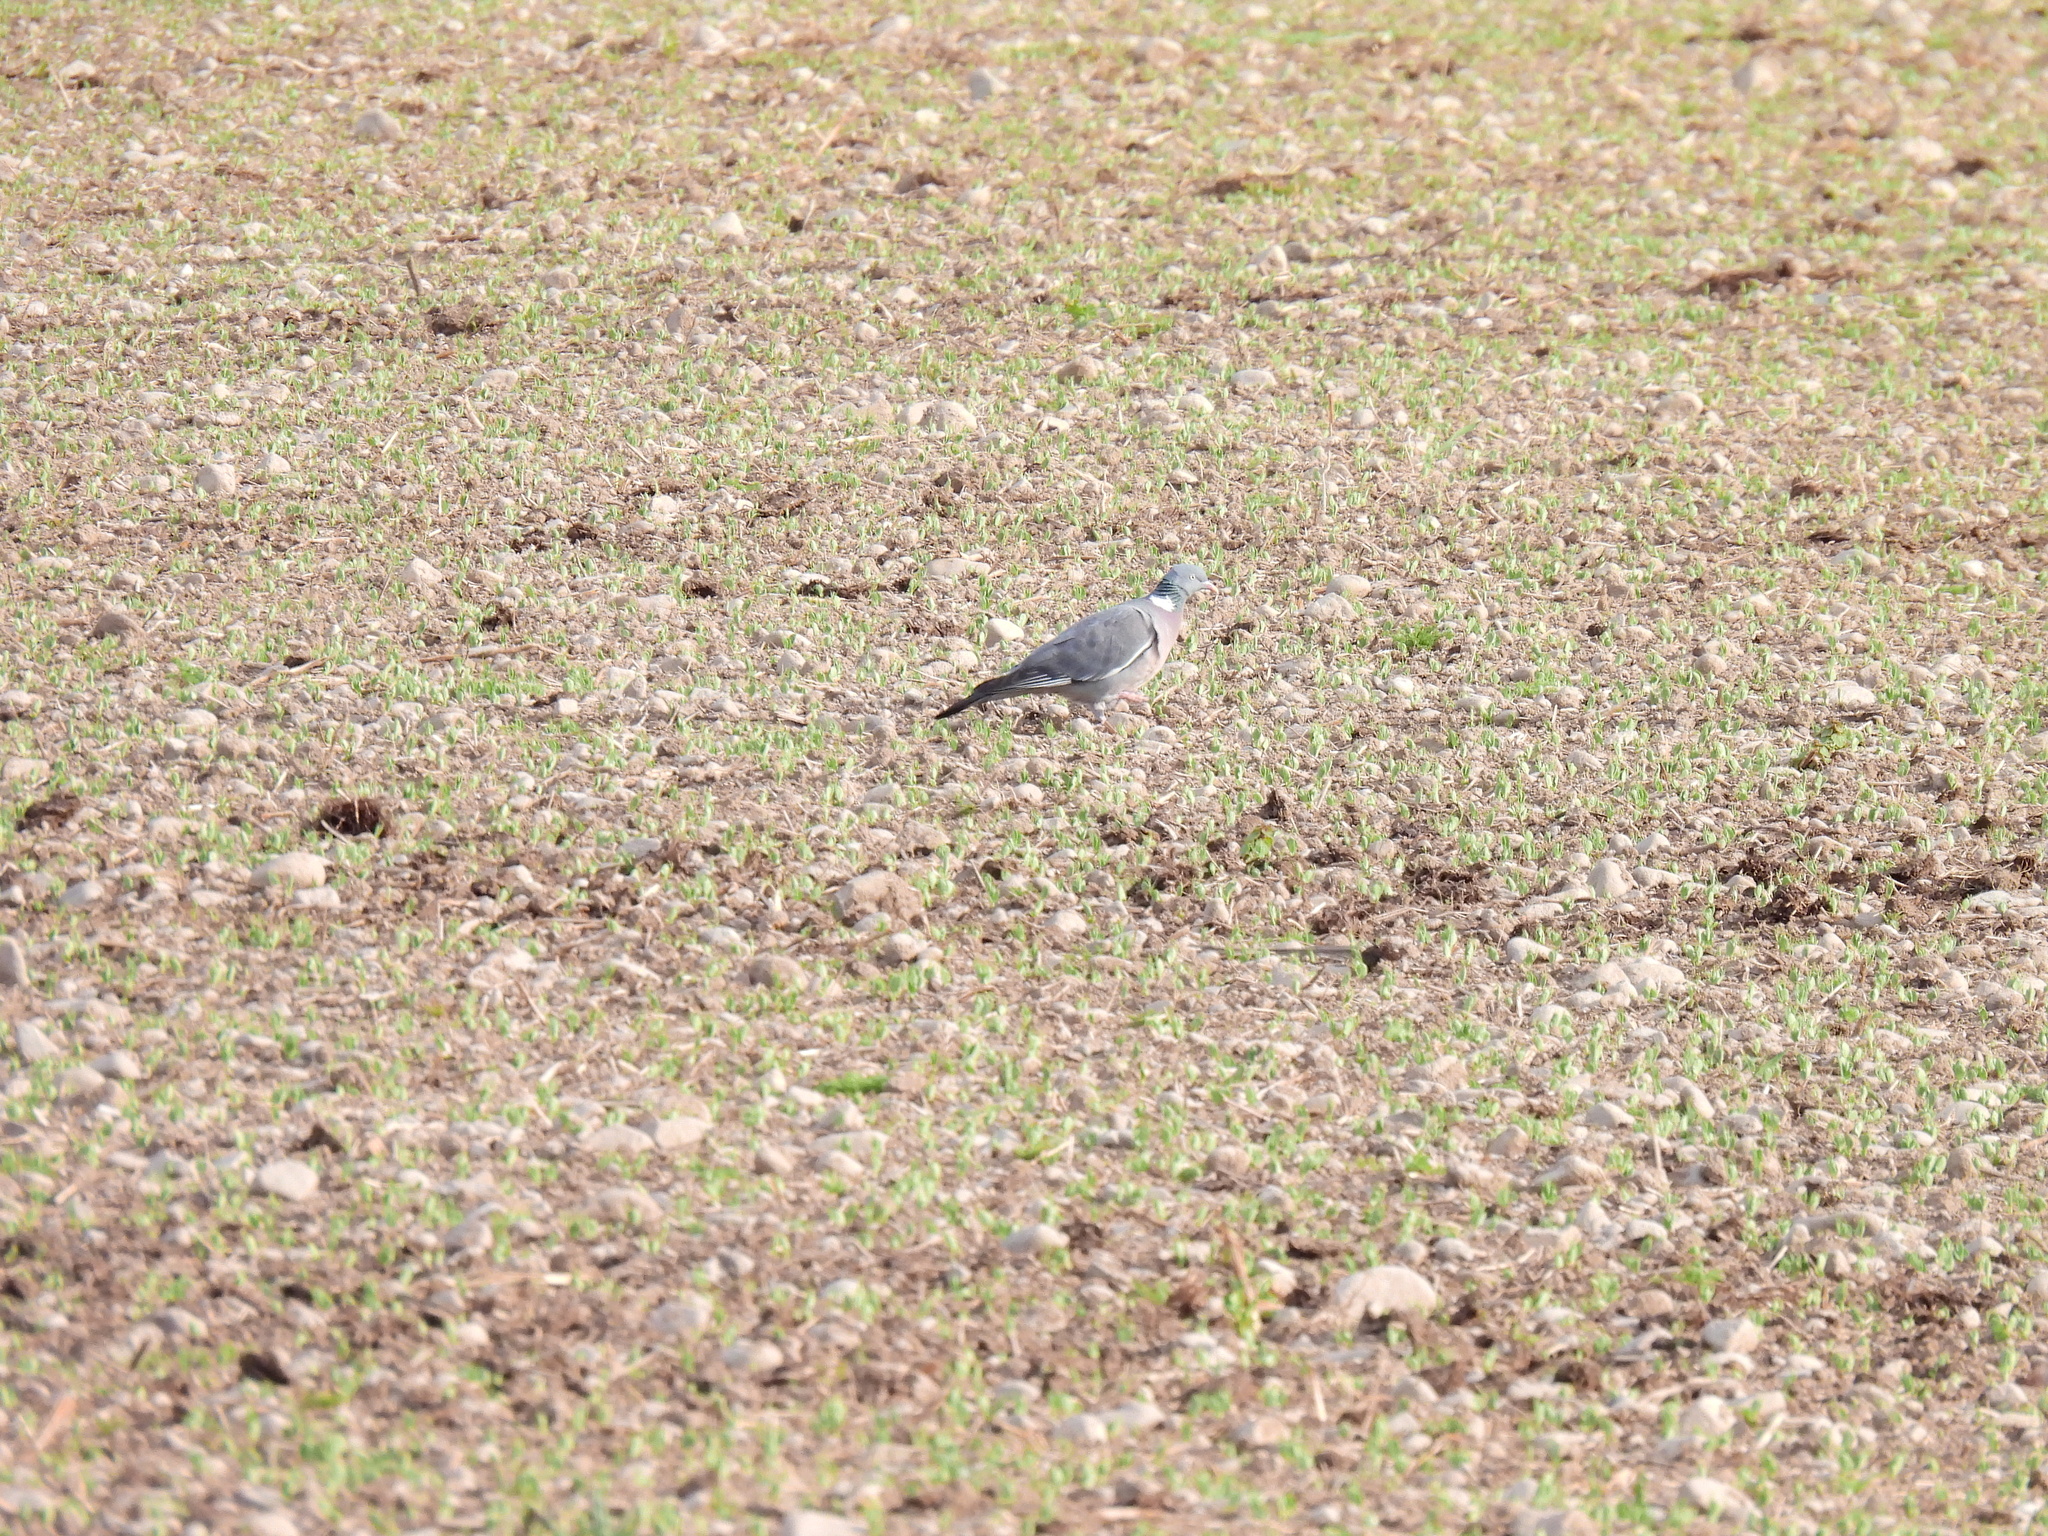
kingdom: Animalia
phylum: Chordata
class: Aves
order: Columbiformes
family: Columbidae
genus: Columba
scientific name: Columba palumbus
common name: Common wood pigeon
